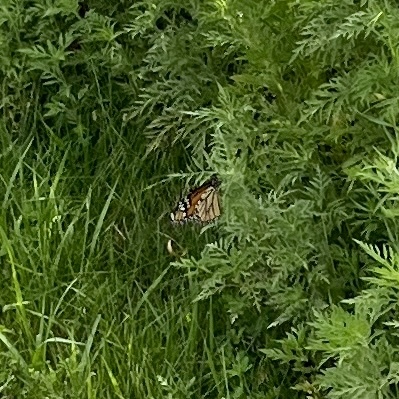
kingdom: Animalia
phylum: Arthropoda
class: Insecta
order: Lepidoptera
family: Nymphalidae
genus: Danaus
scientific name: Danaus plexippus
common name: Monarch
